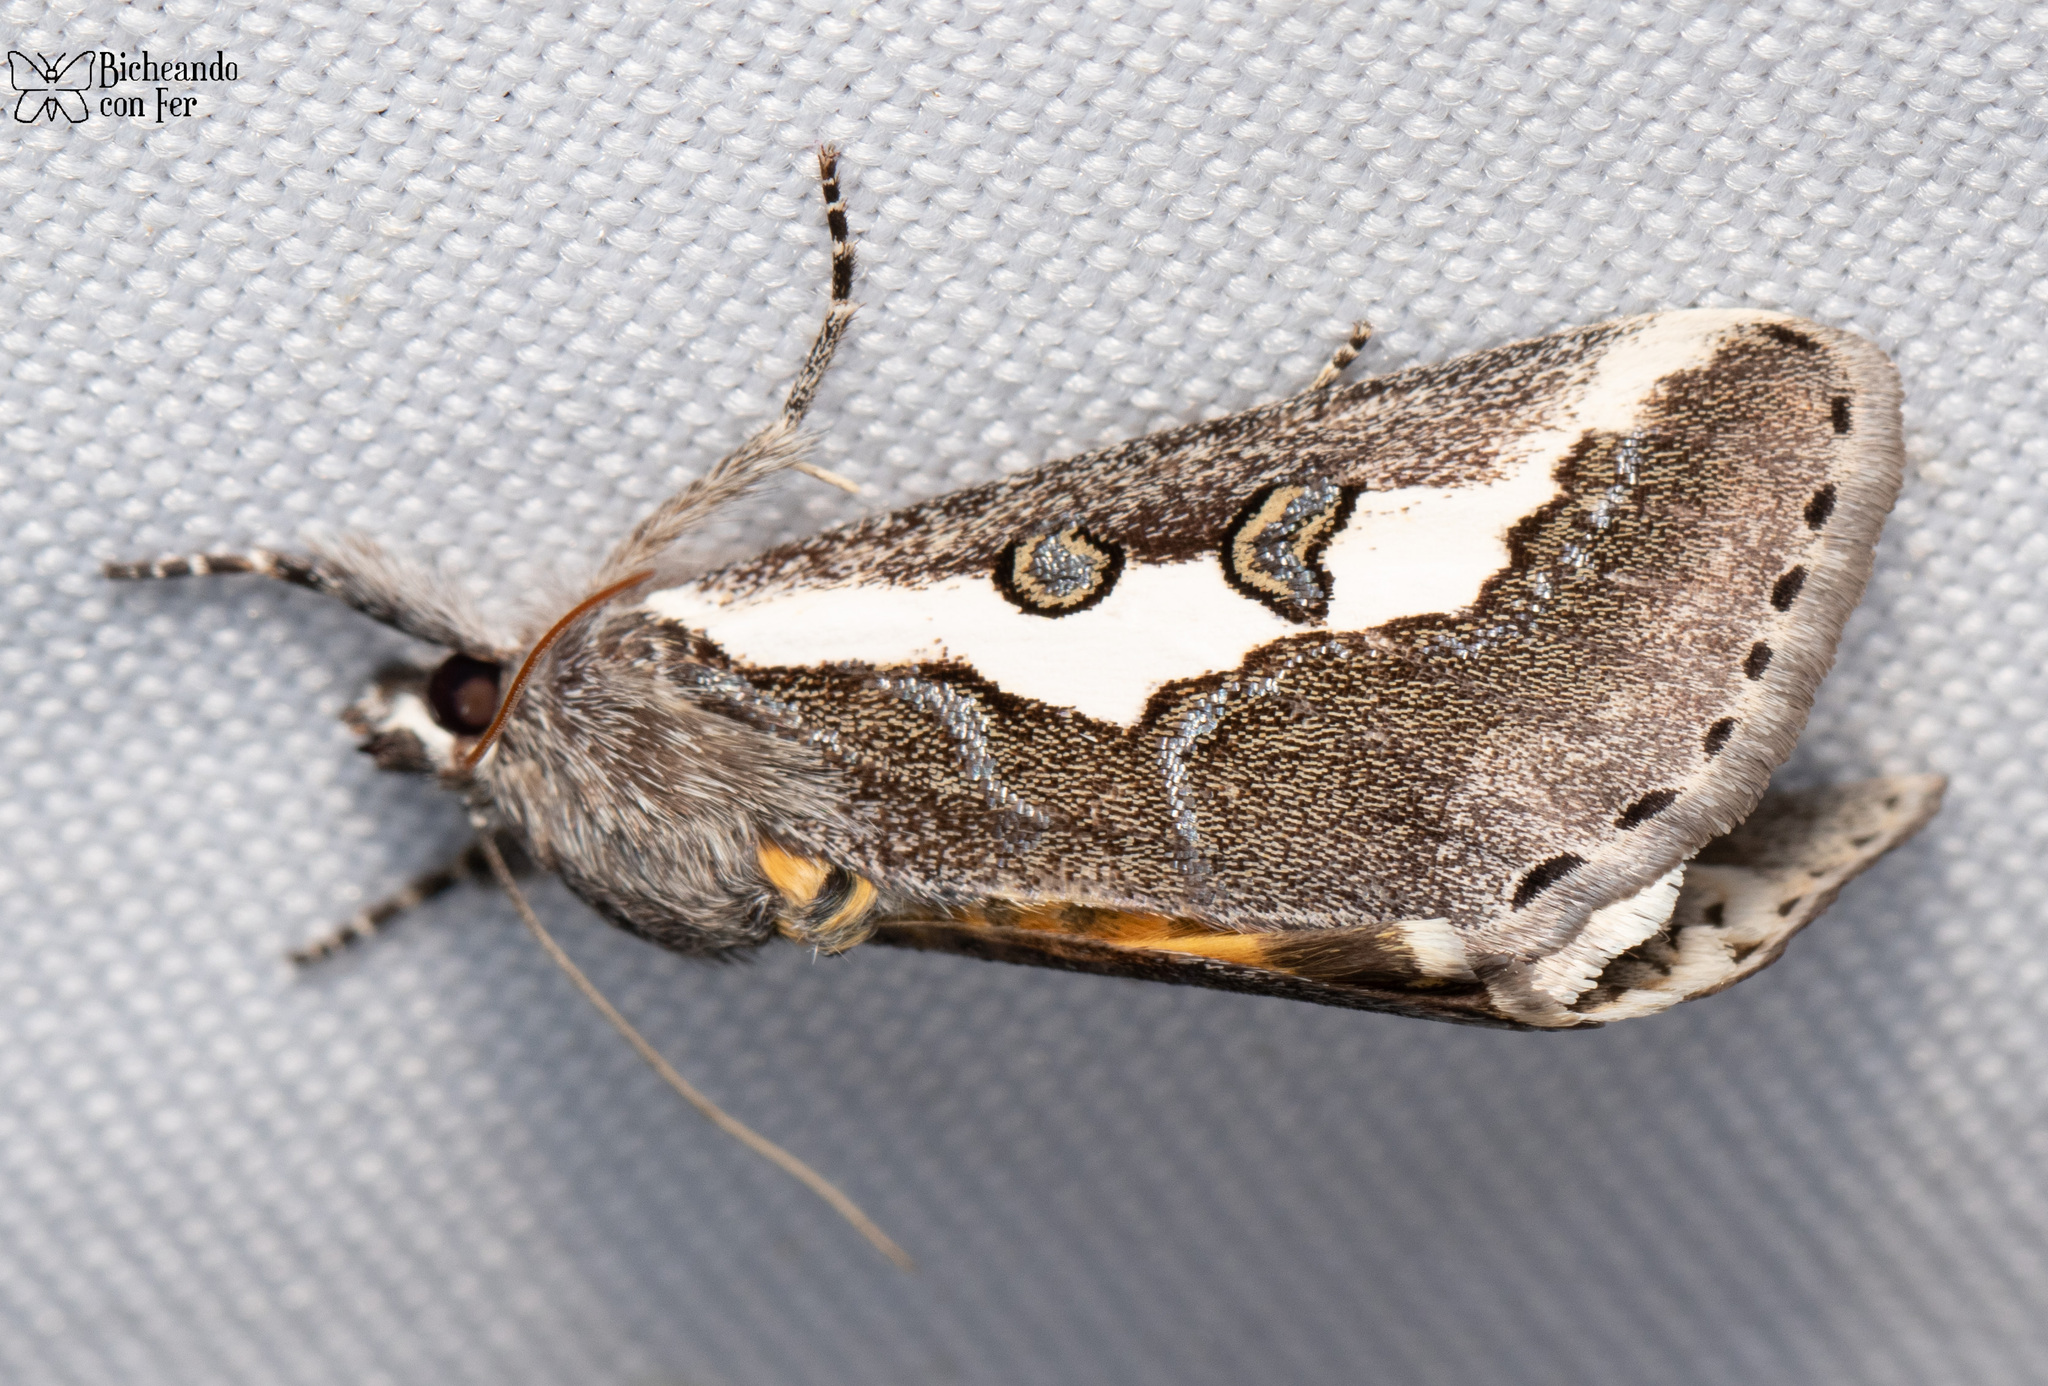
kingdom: Animalia
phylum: Arthropoda
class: Insecta
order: Lepidoptera
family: Noctuidae
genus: Euscirrhopterus
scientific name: Euscirrhopterus gloveri
